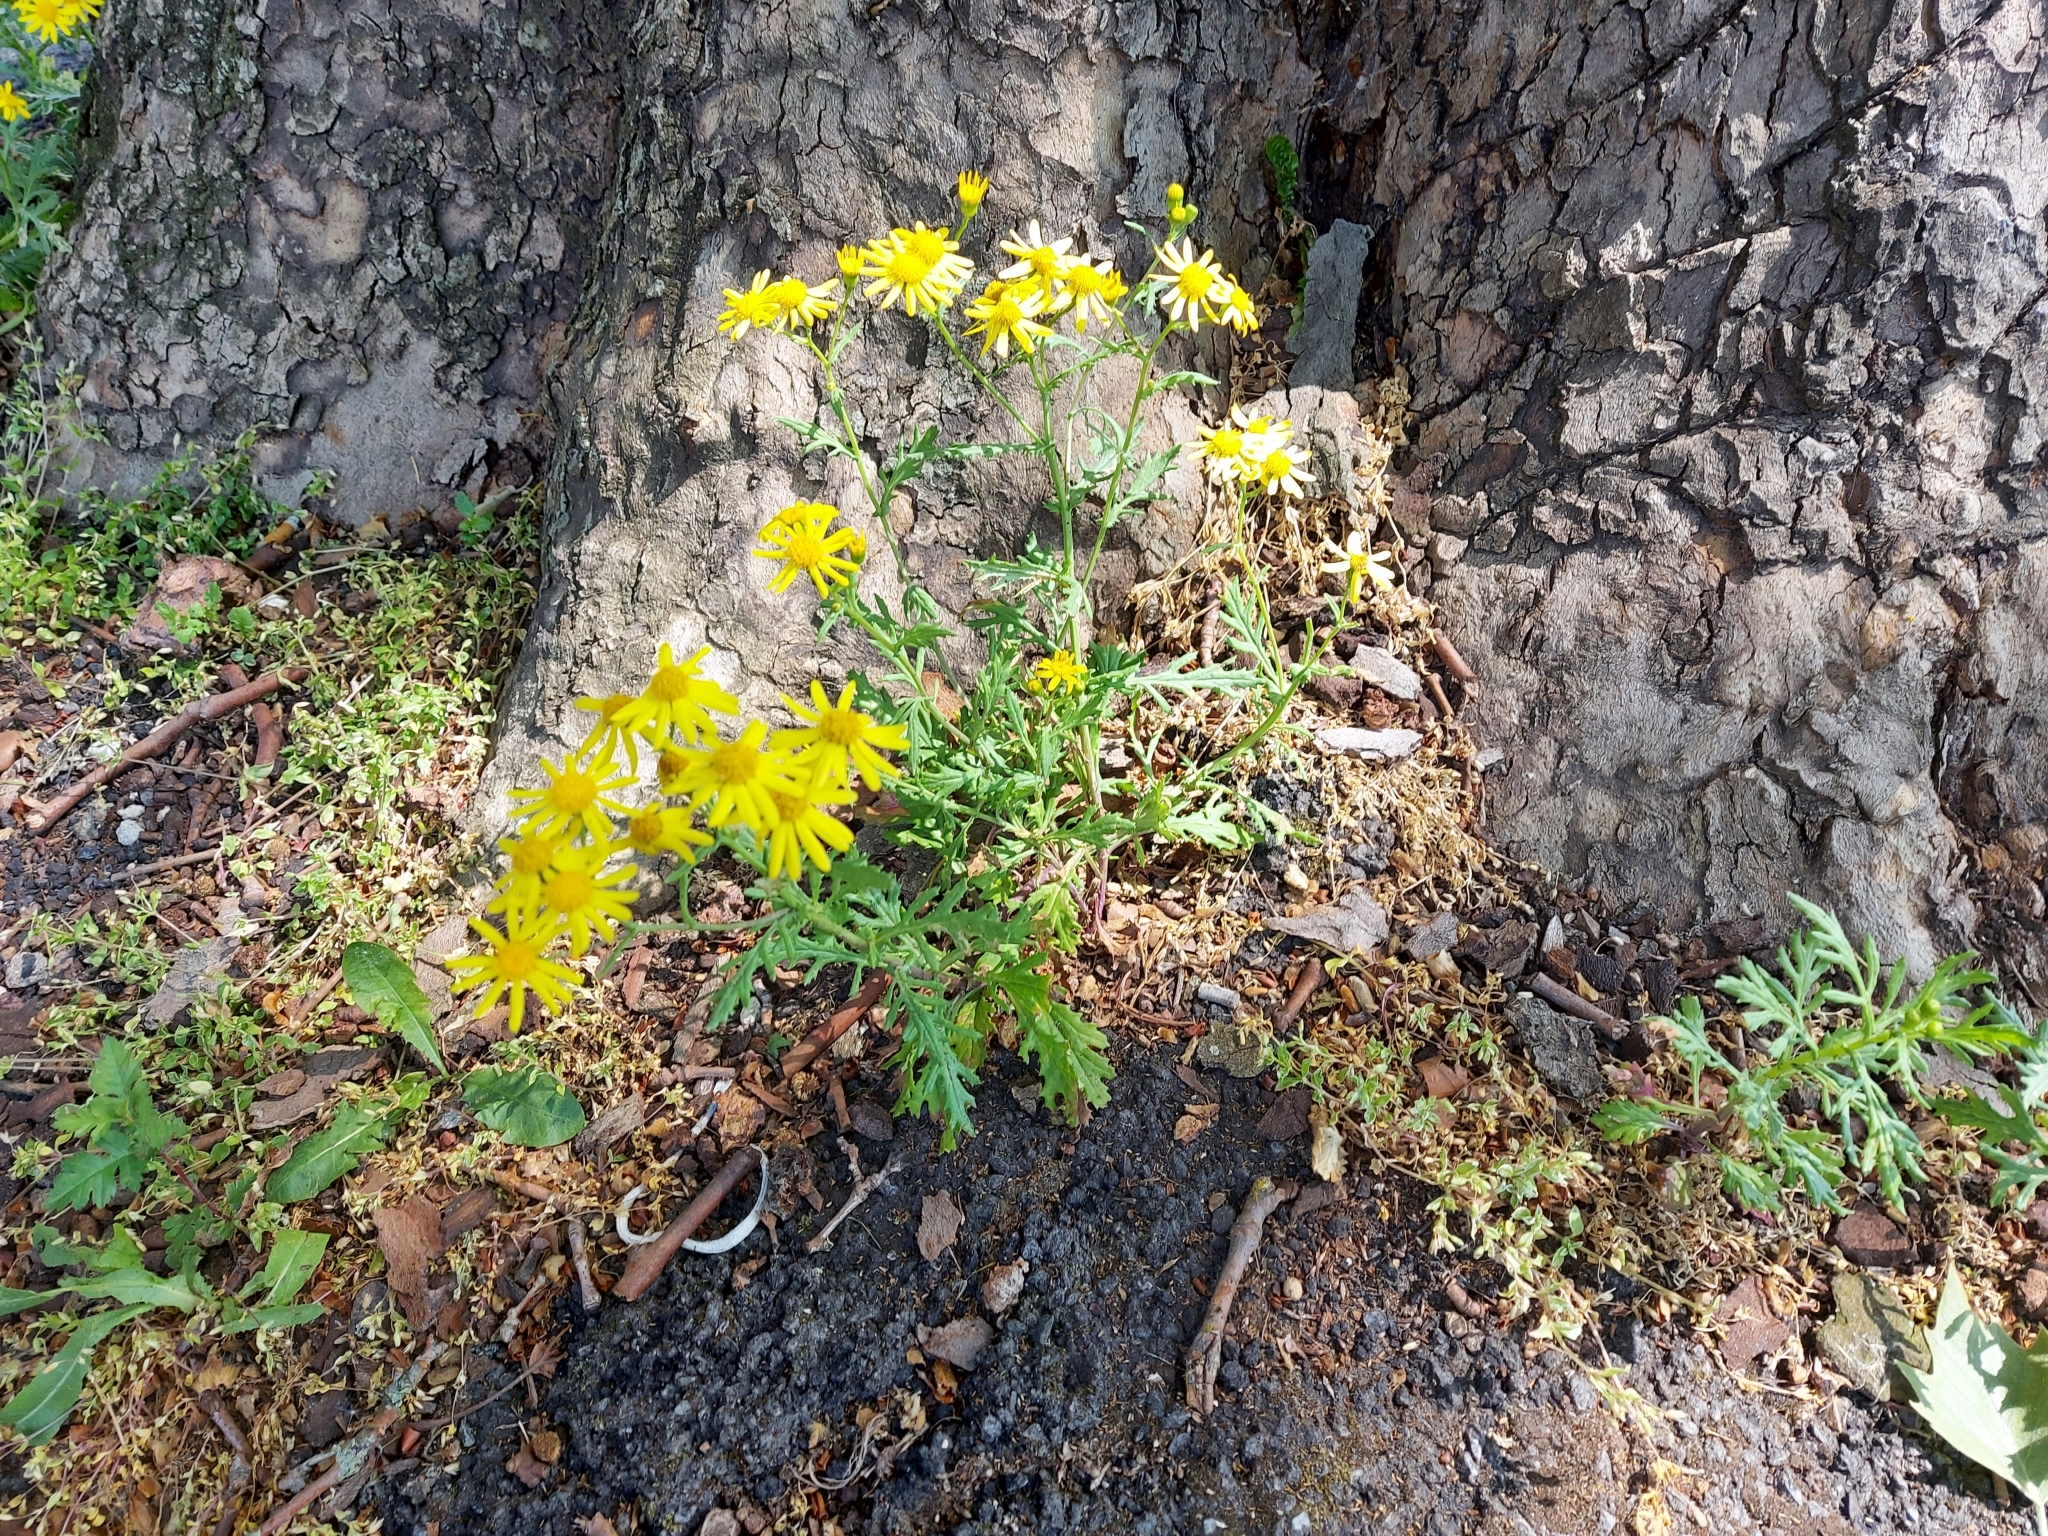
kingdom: Plantae
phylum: Tracheophyta
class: Magnoliopsida
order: Asterales
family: Asteraceae
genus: Senecio
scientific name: Senecio squalidus
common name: Oxford ragwort
